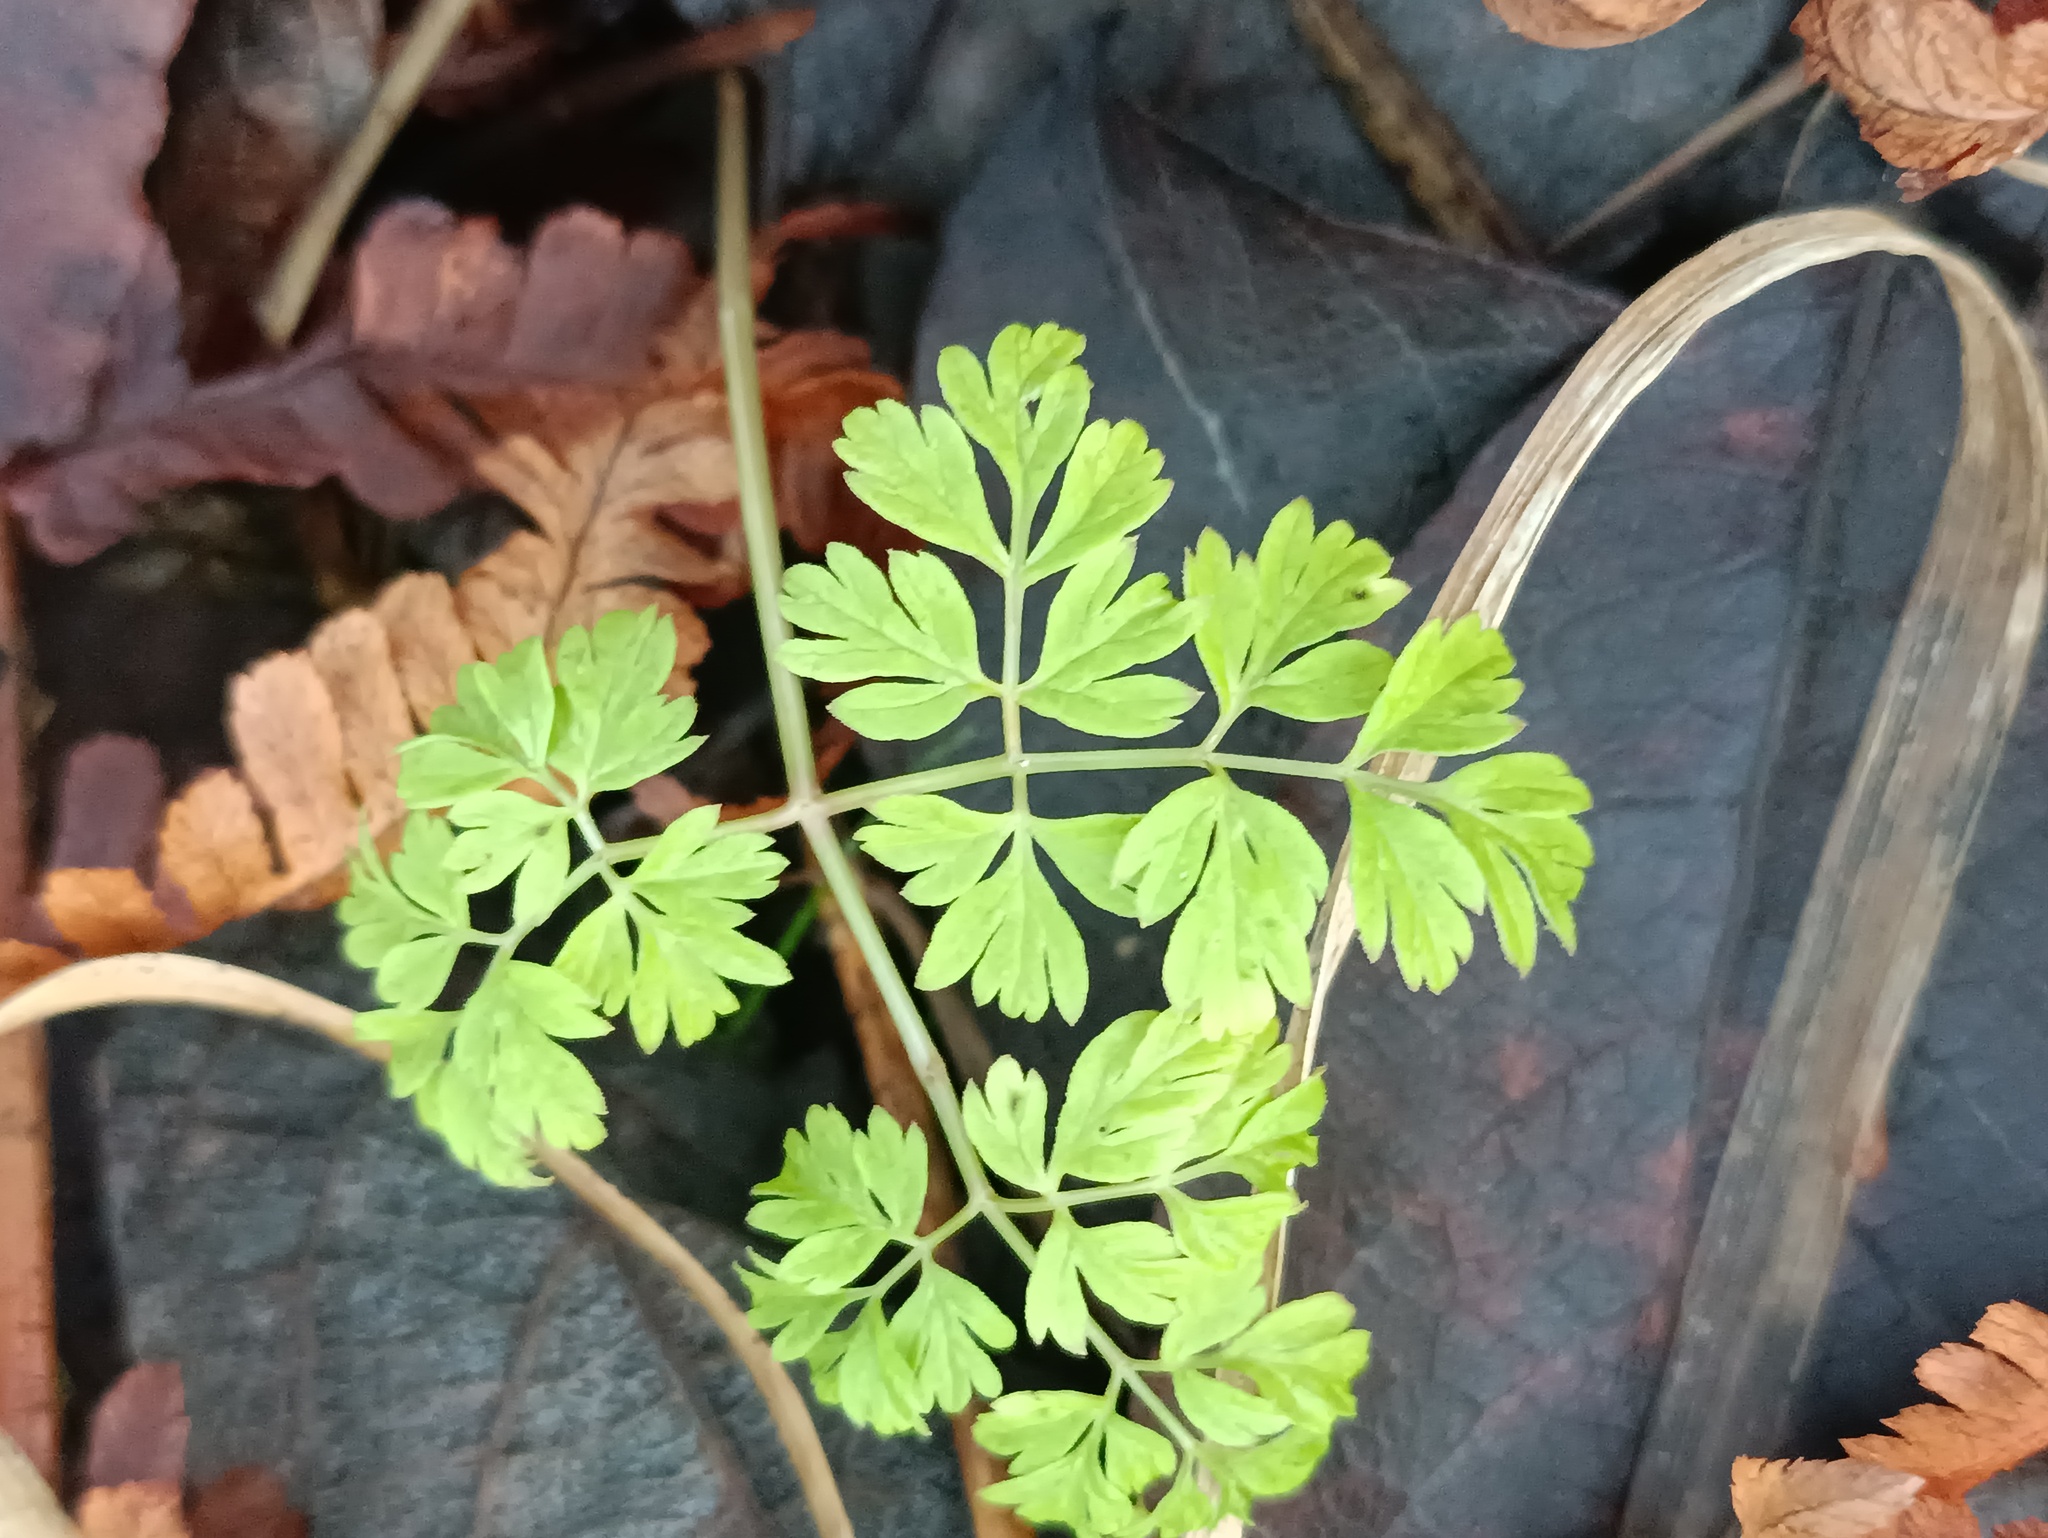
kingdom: Plantae
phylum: Tracheophyta
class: Magnoliopsida
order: Apiales
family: Apiaceae
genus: Anthriscus
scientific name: Anthriscus sylvestris
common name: Cow parsley
